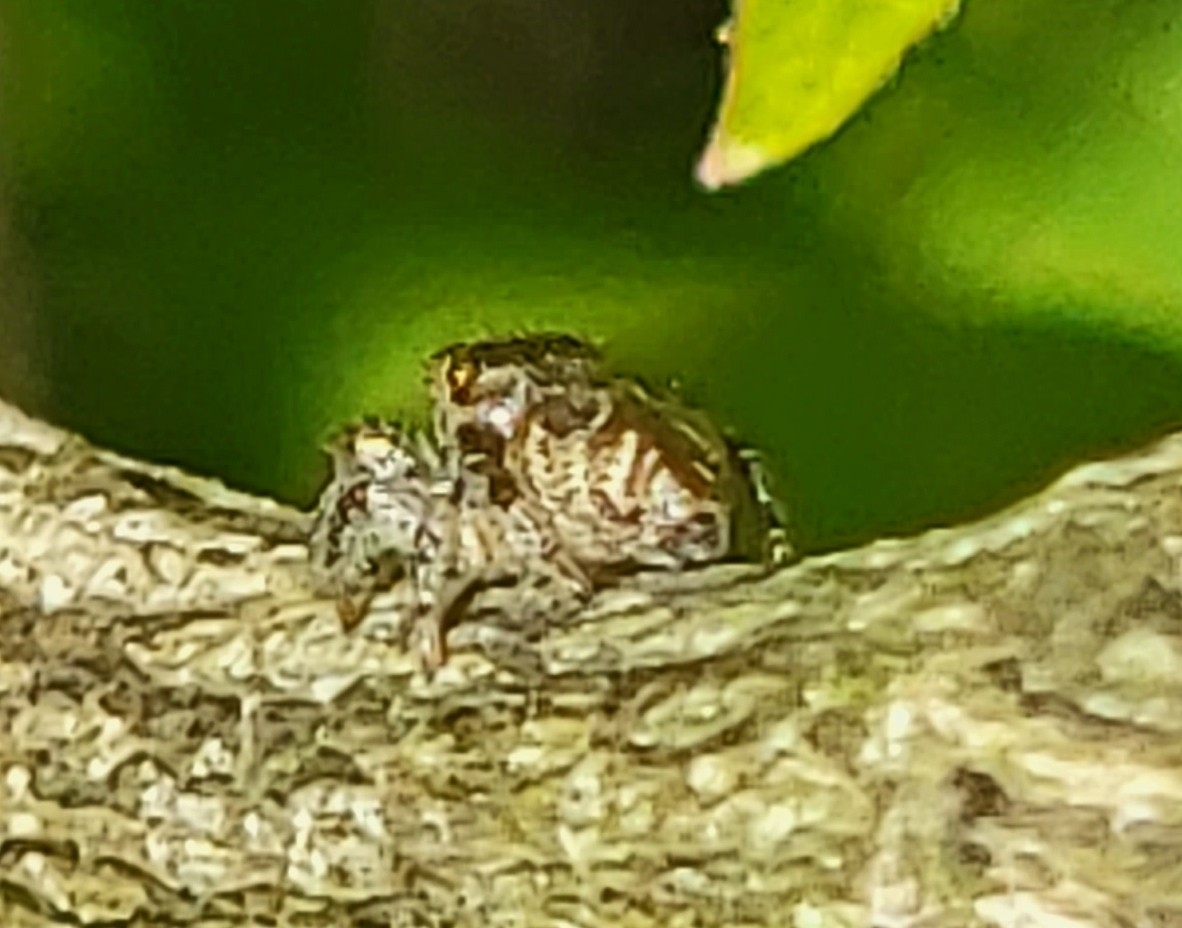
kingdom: Animalia
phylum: Arthropoda
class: Arachnida
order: Araneae
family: Salticidae
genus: Eris
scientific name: Eris militaris
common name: Bronze jumper
